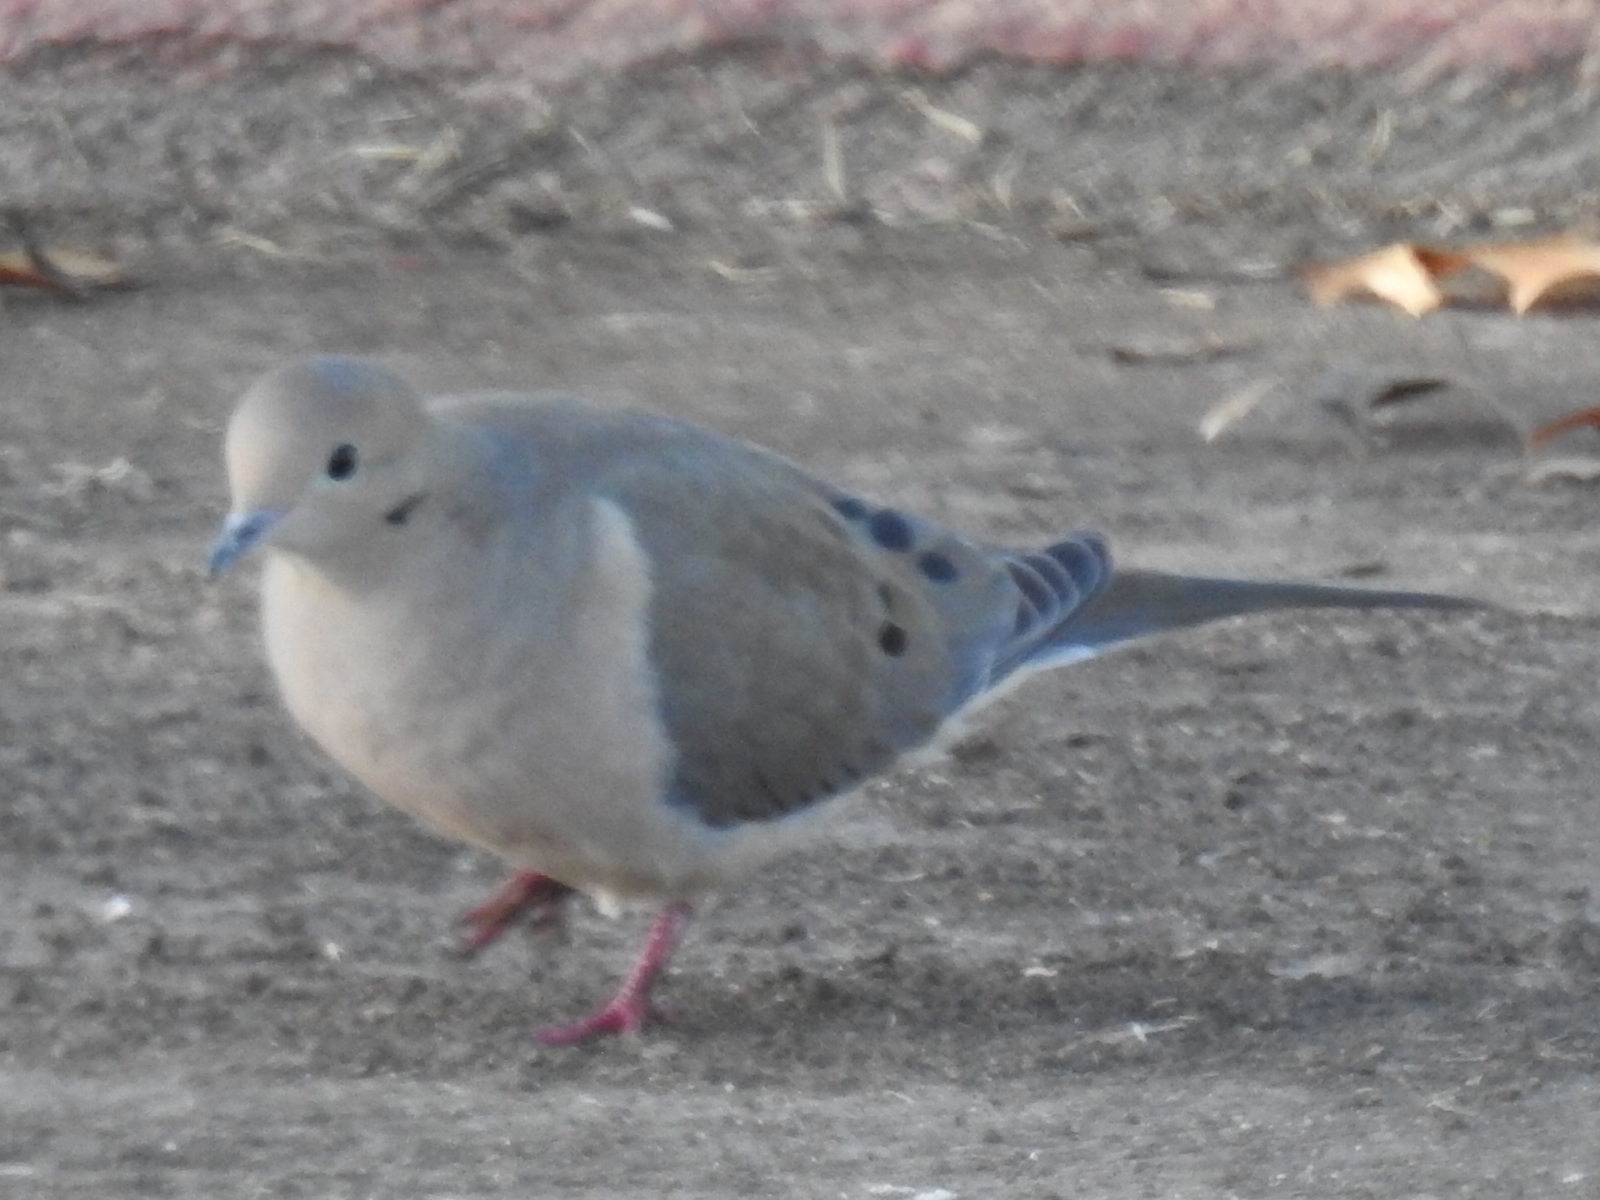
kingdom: Animalia
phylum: Chordata
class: Aves
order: Columbiformes
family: Columbidae
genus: Zenaida
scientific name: Zenaida macroura
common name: Mourning dove
